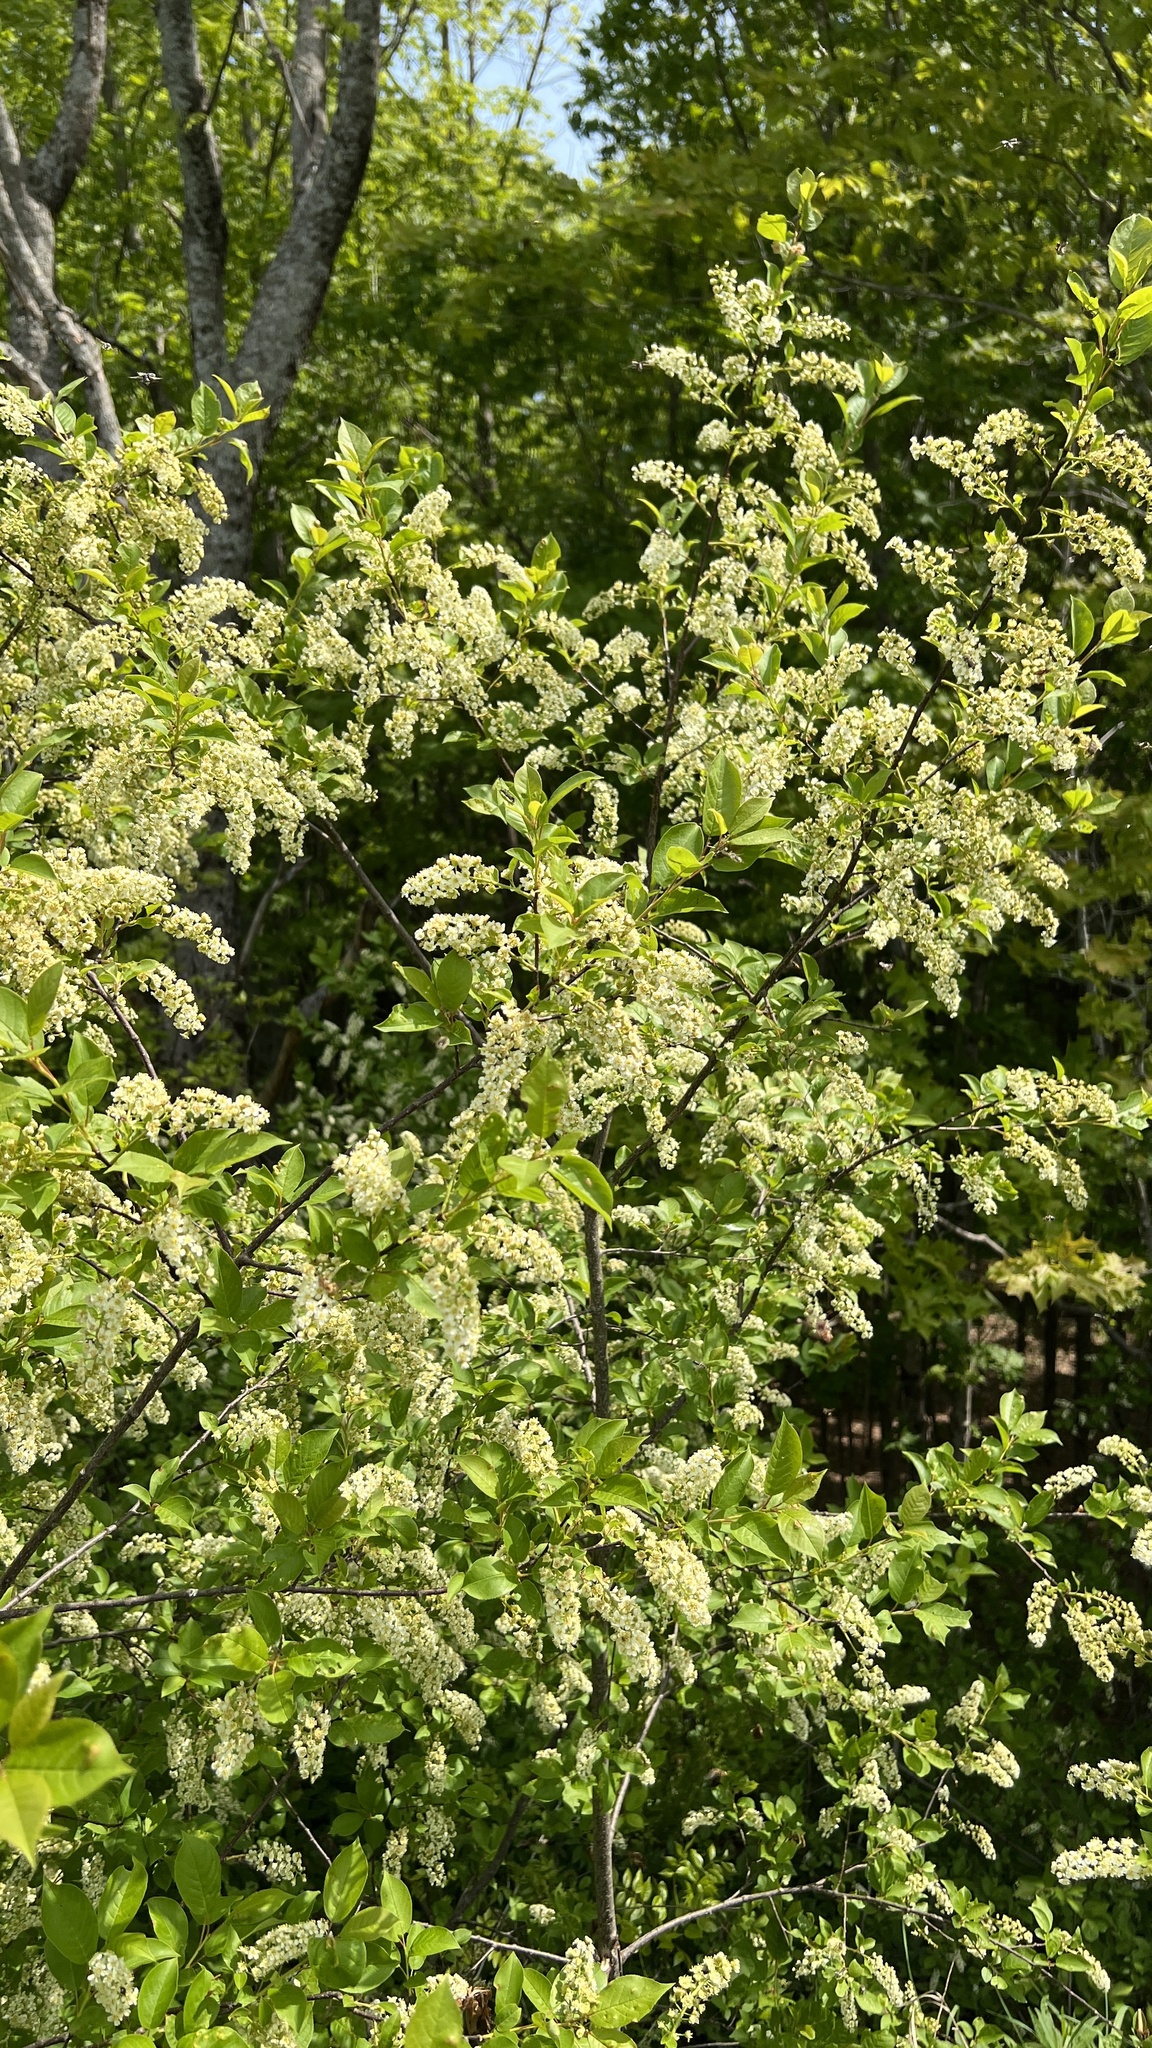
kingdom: Plantae
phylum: Tracheophyta
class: Magnoliopsida
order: Rosales
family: Rosaceae
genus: Prunus
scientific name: Prunus virginiana
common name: Chokecherry
